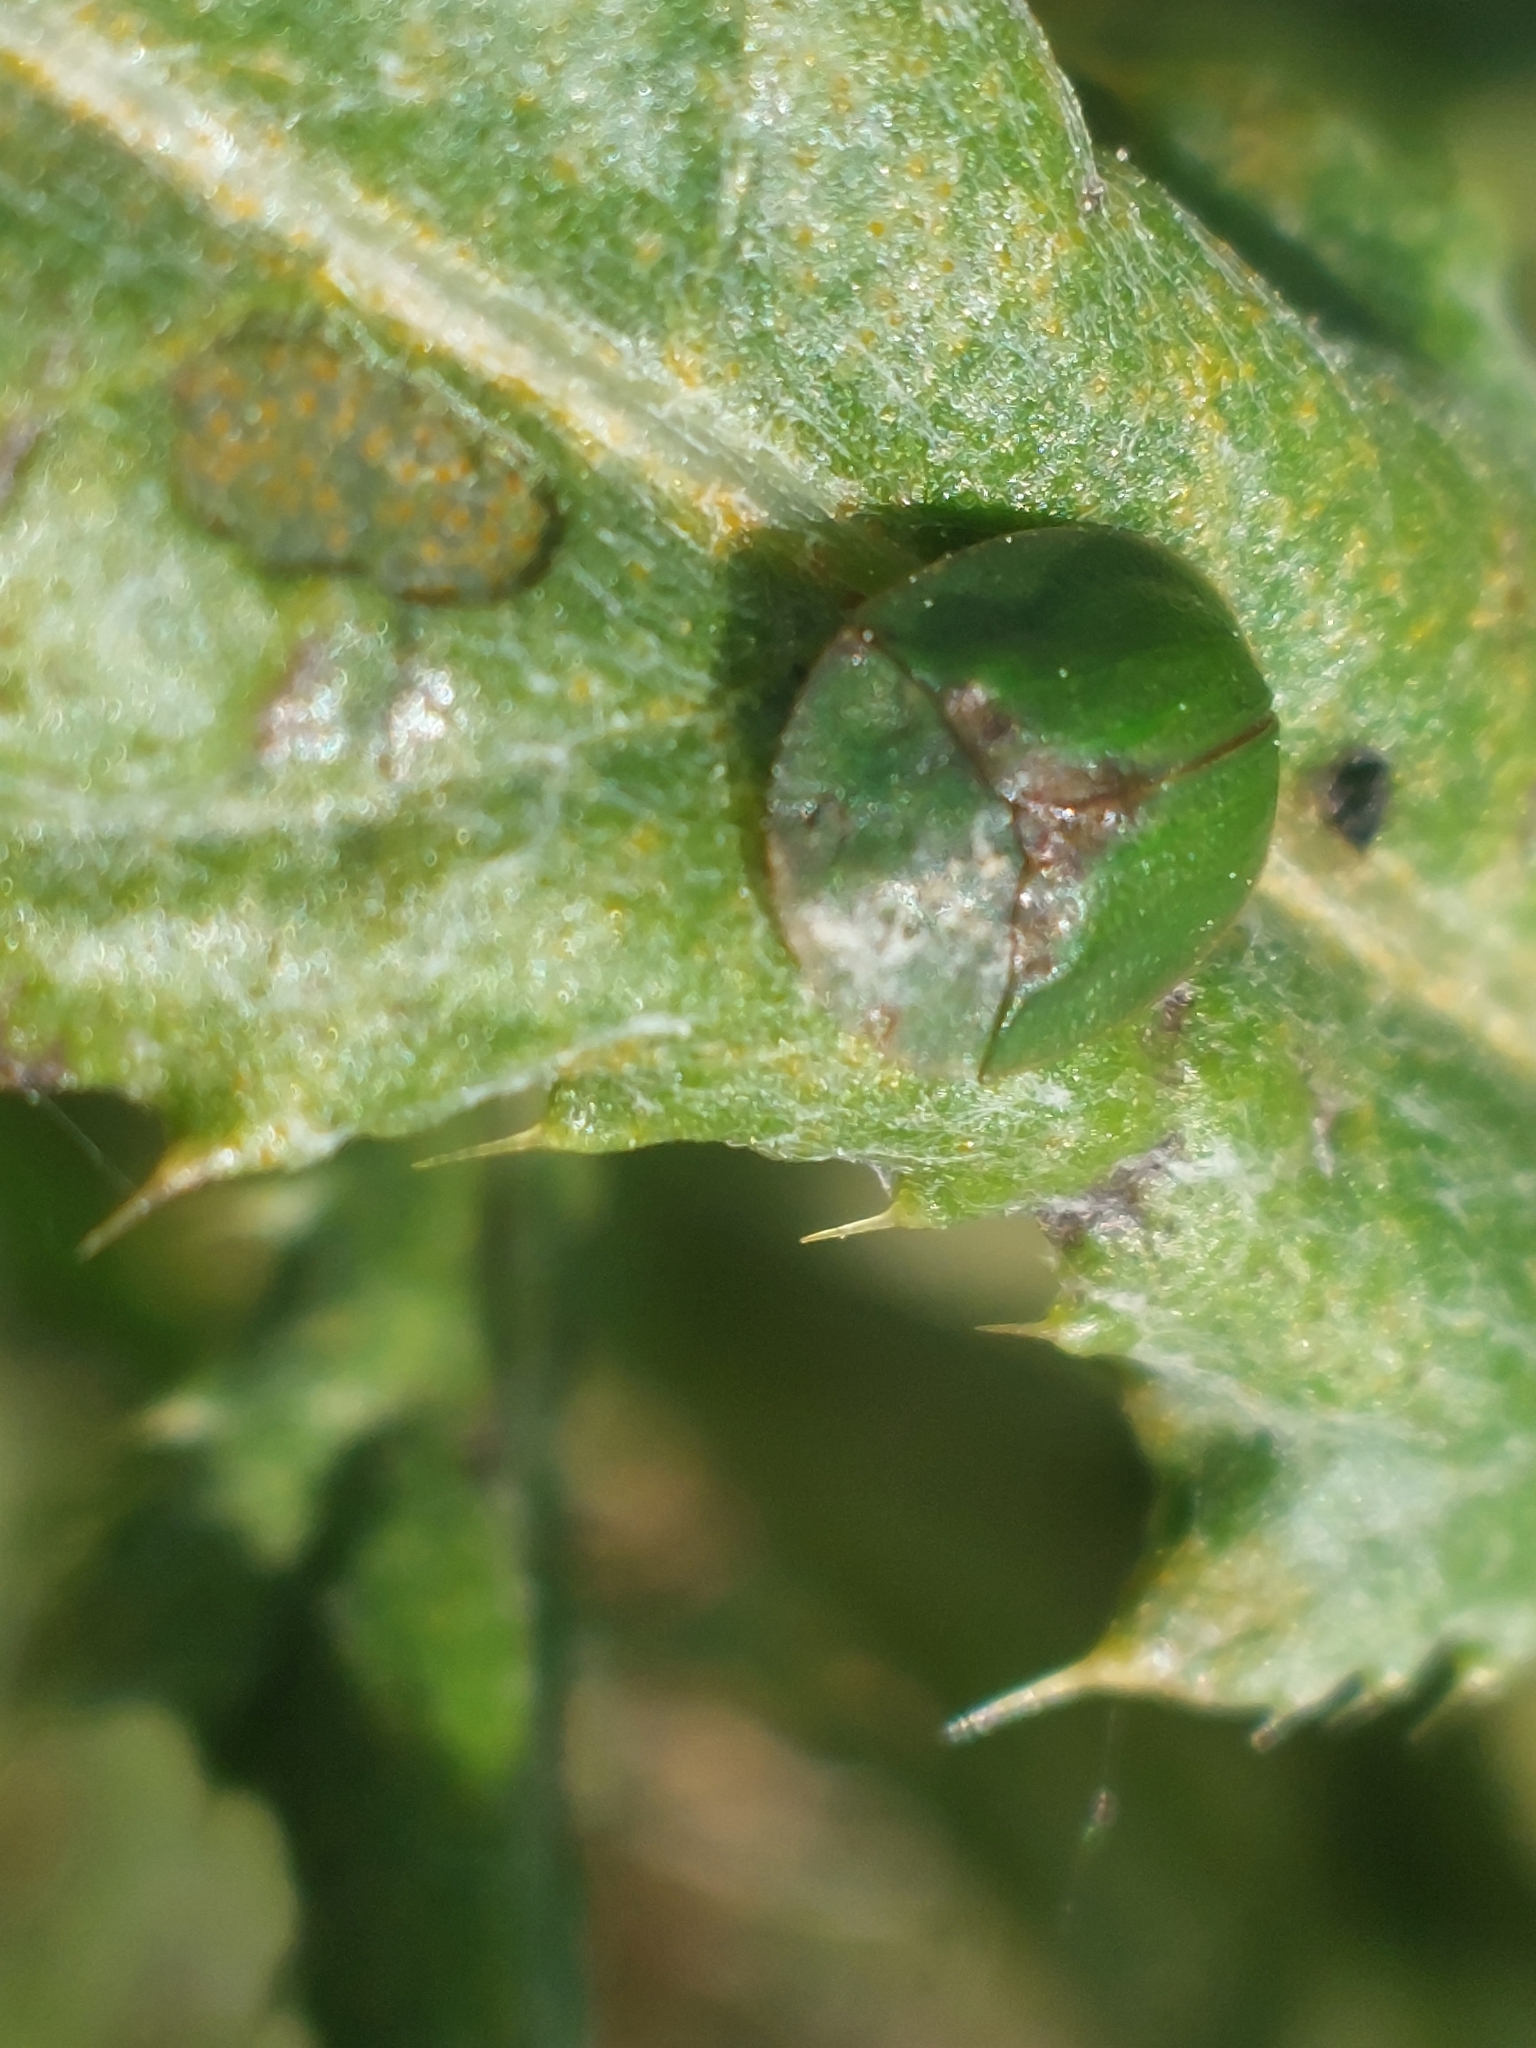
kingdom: Animalia
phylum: Arthropoda
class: Insecta
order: Coleoptera
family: Chrysomelidae
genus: Cassida
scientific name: Cassida rubiginosa
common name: Thistle tortoise beetle
